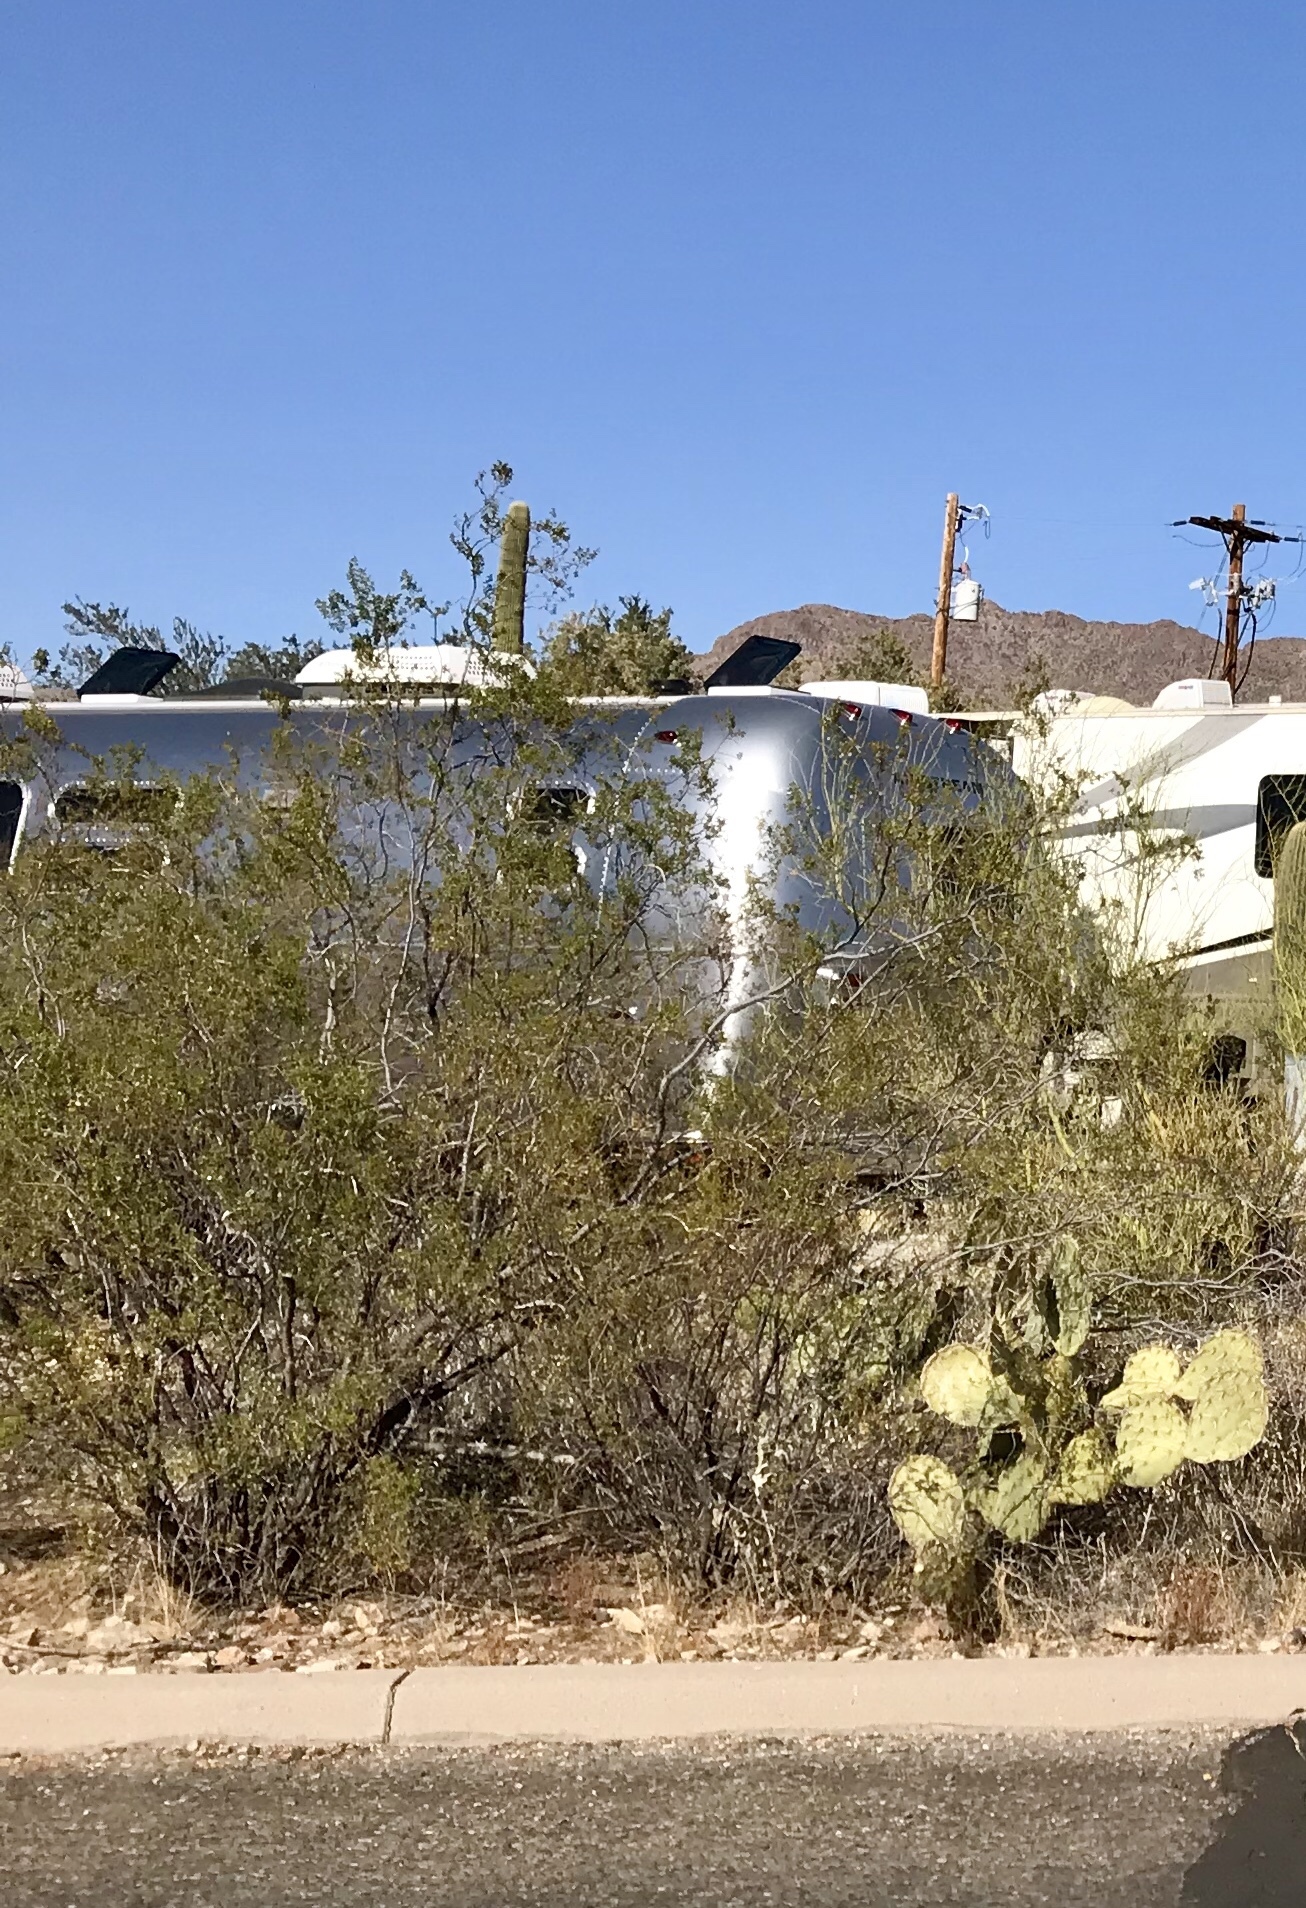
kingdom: Plantae
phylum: Tracheophyta
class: Magnoliopsida
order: Zygophyllales
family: Zygophyllaceae
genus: Larrea
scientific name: Larrea tridentata
